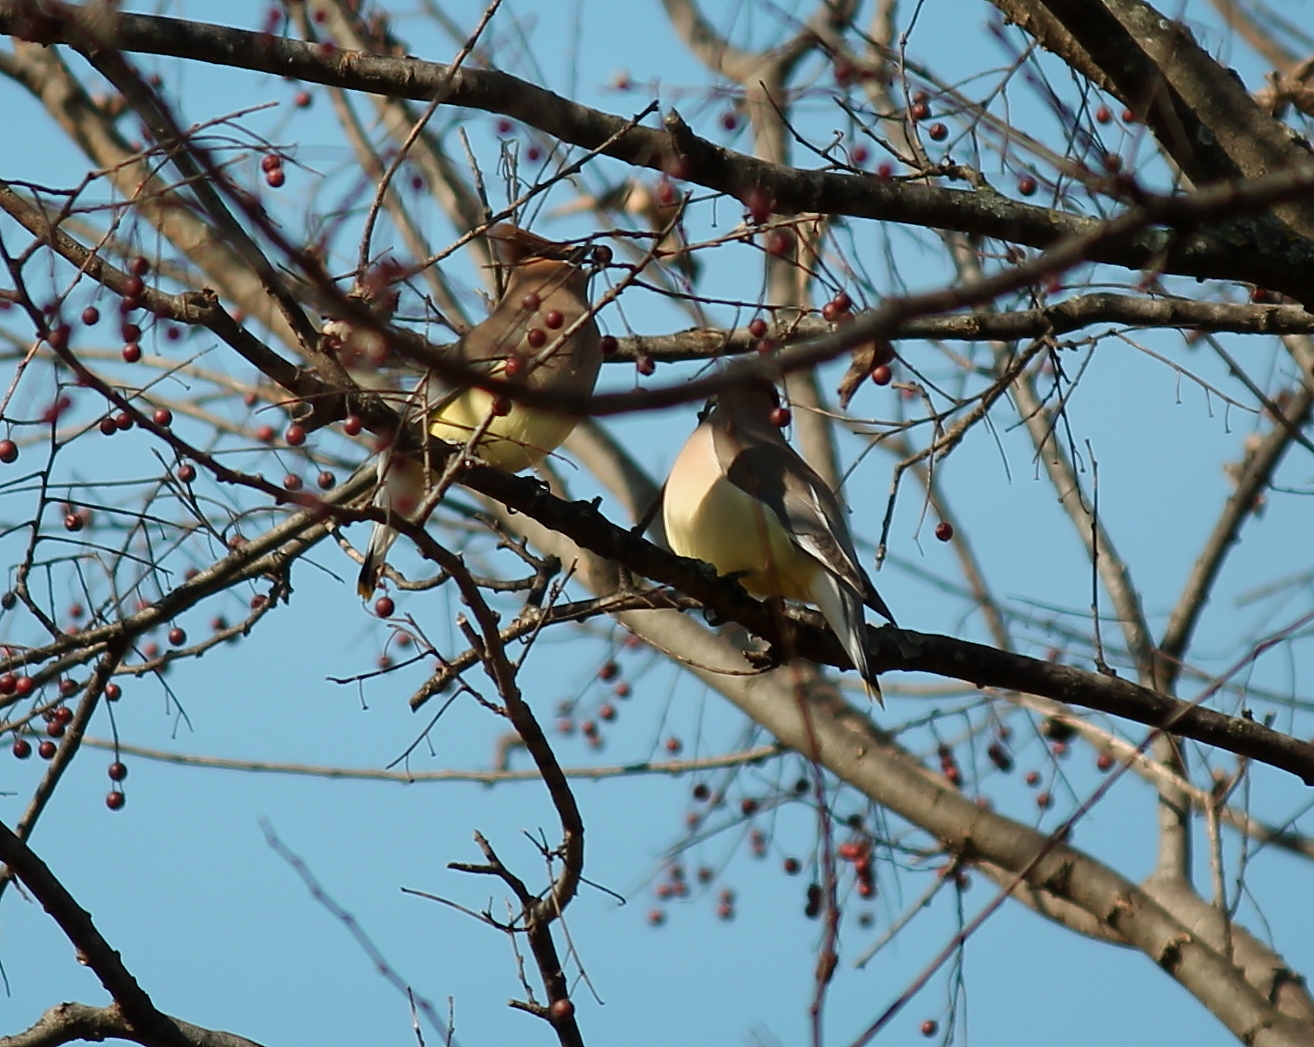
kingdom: Animalia
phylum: Chordata
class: Aves
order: Passeriformes
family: Bombycillidae
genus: Bombycilla
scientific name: Bombycilla cedrorum
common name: Cedar waxwing
